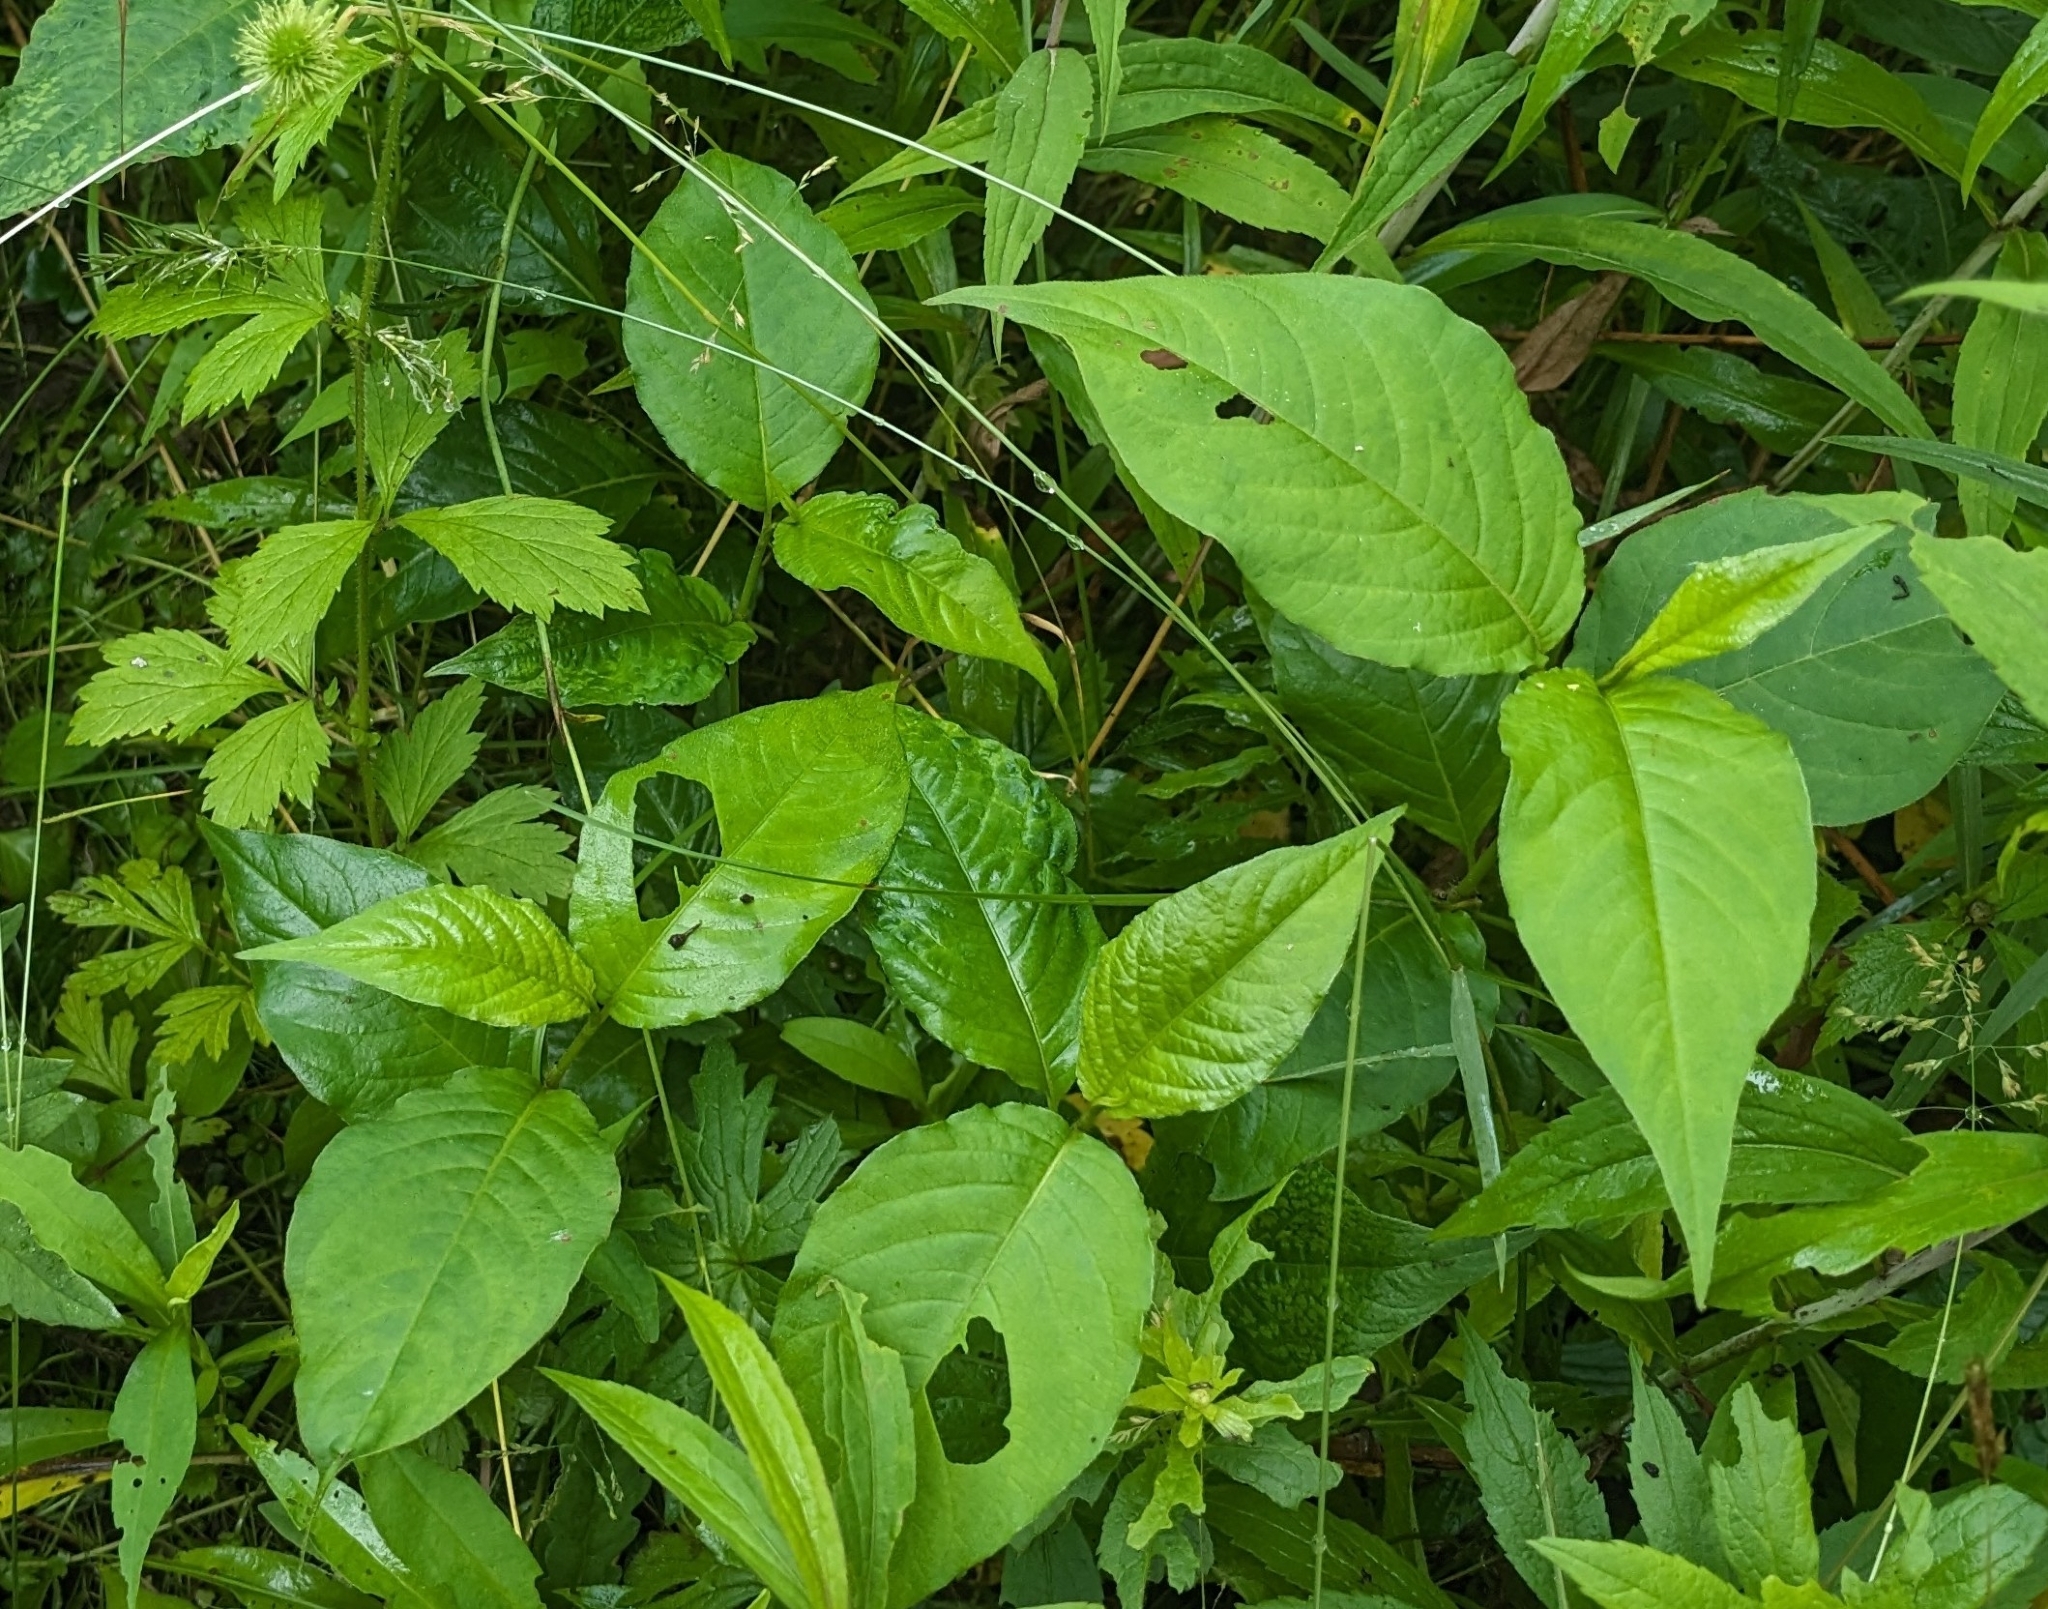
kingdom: Plantae
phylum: Tracheophyta
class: Magnoliopsida
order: Caryophyllales
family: Polygonaceae
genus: Persicaria
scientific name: Persicaria virginiana
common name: Jumpseed
